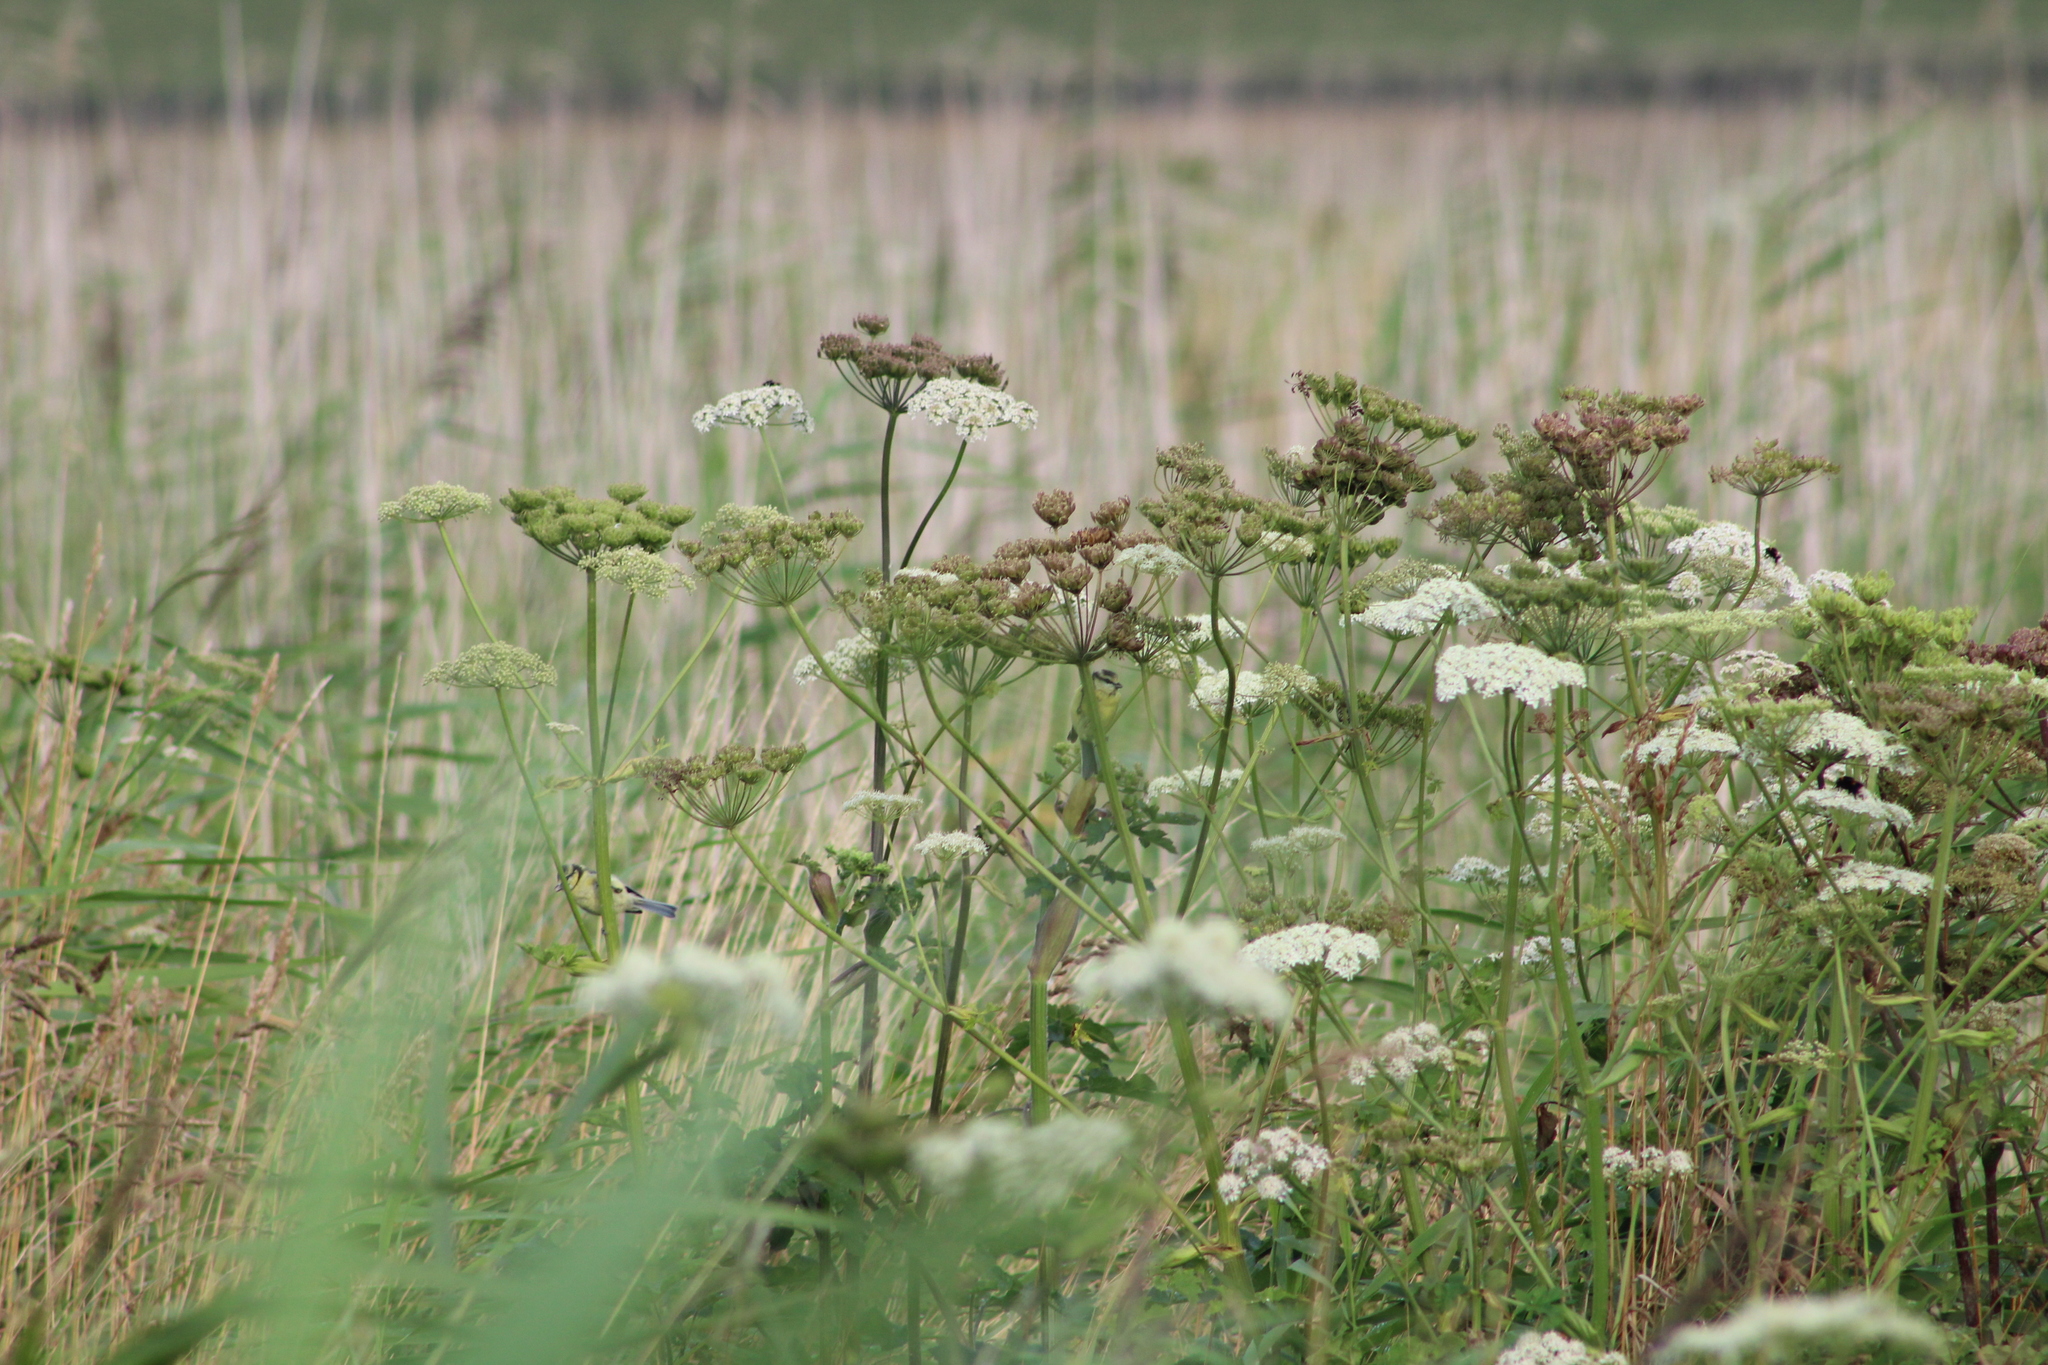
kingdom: Animalia
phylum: Chordata
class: Aves
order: Passeriformes
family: Paridae
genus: Cyanistes
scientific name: Cyanistes caeruleus
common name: Eurasian blue tit
